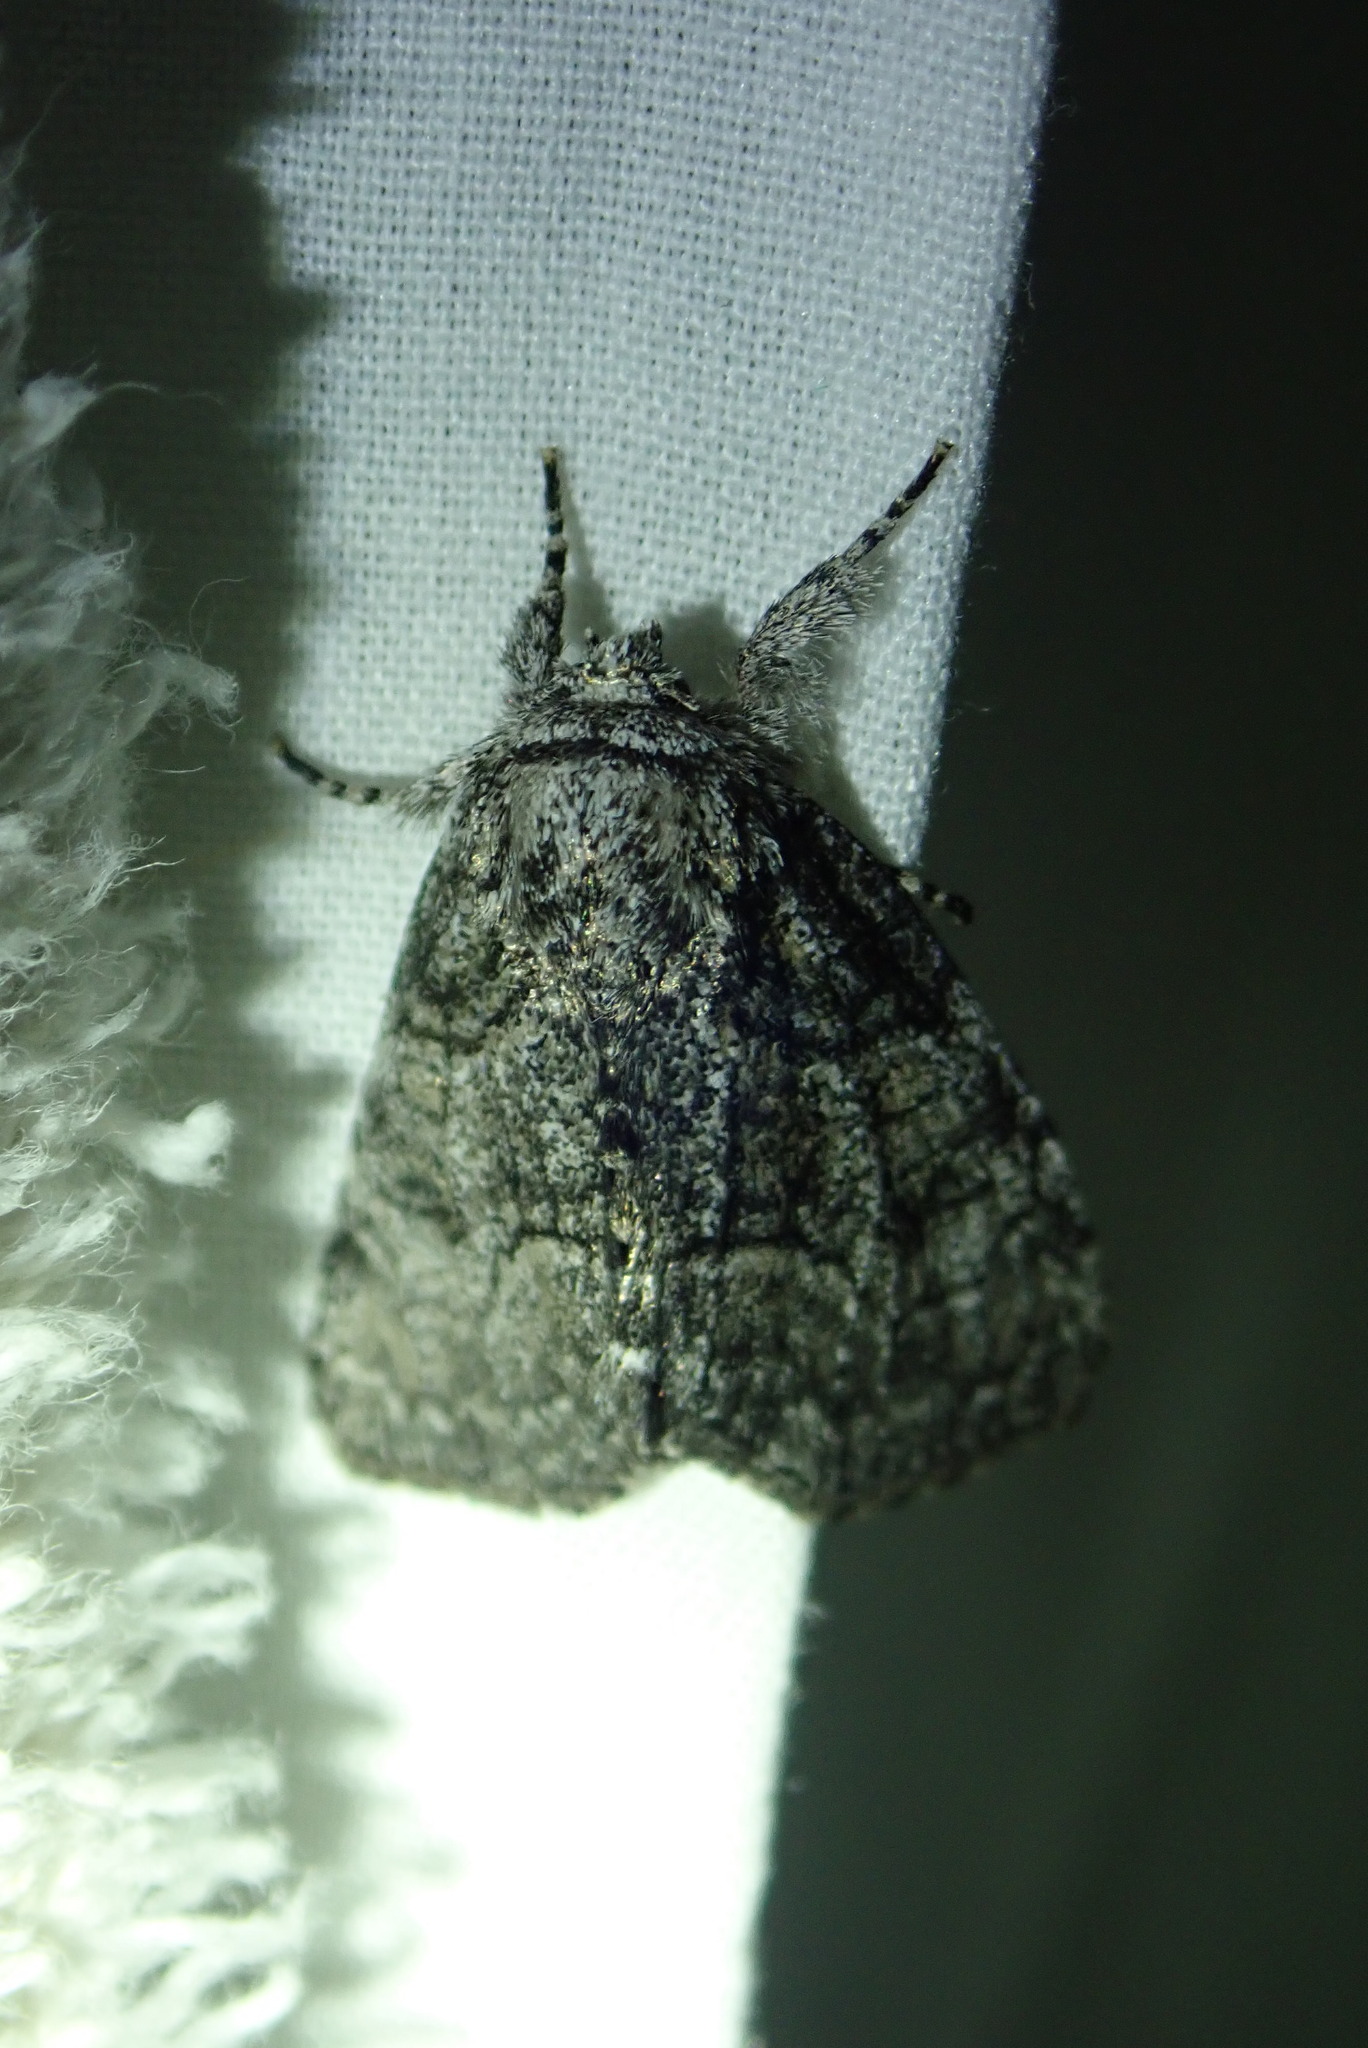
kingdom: Animalia
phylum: Arthropoda
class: Insecta
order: Lepidoptera
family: Noctuidae
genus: Raphia
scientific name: Raphia frater
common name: Brother
